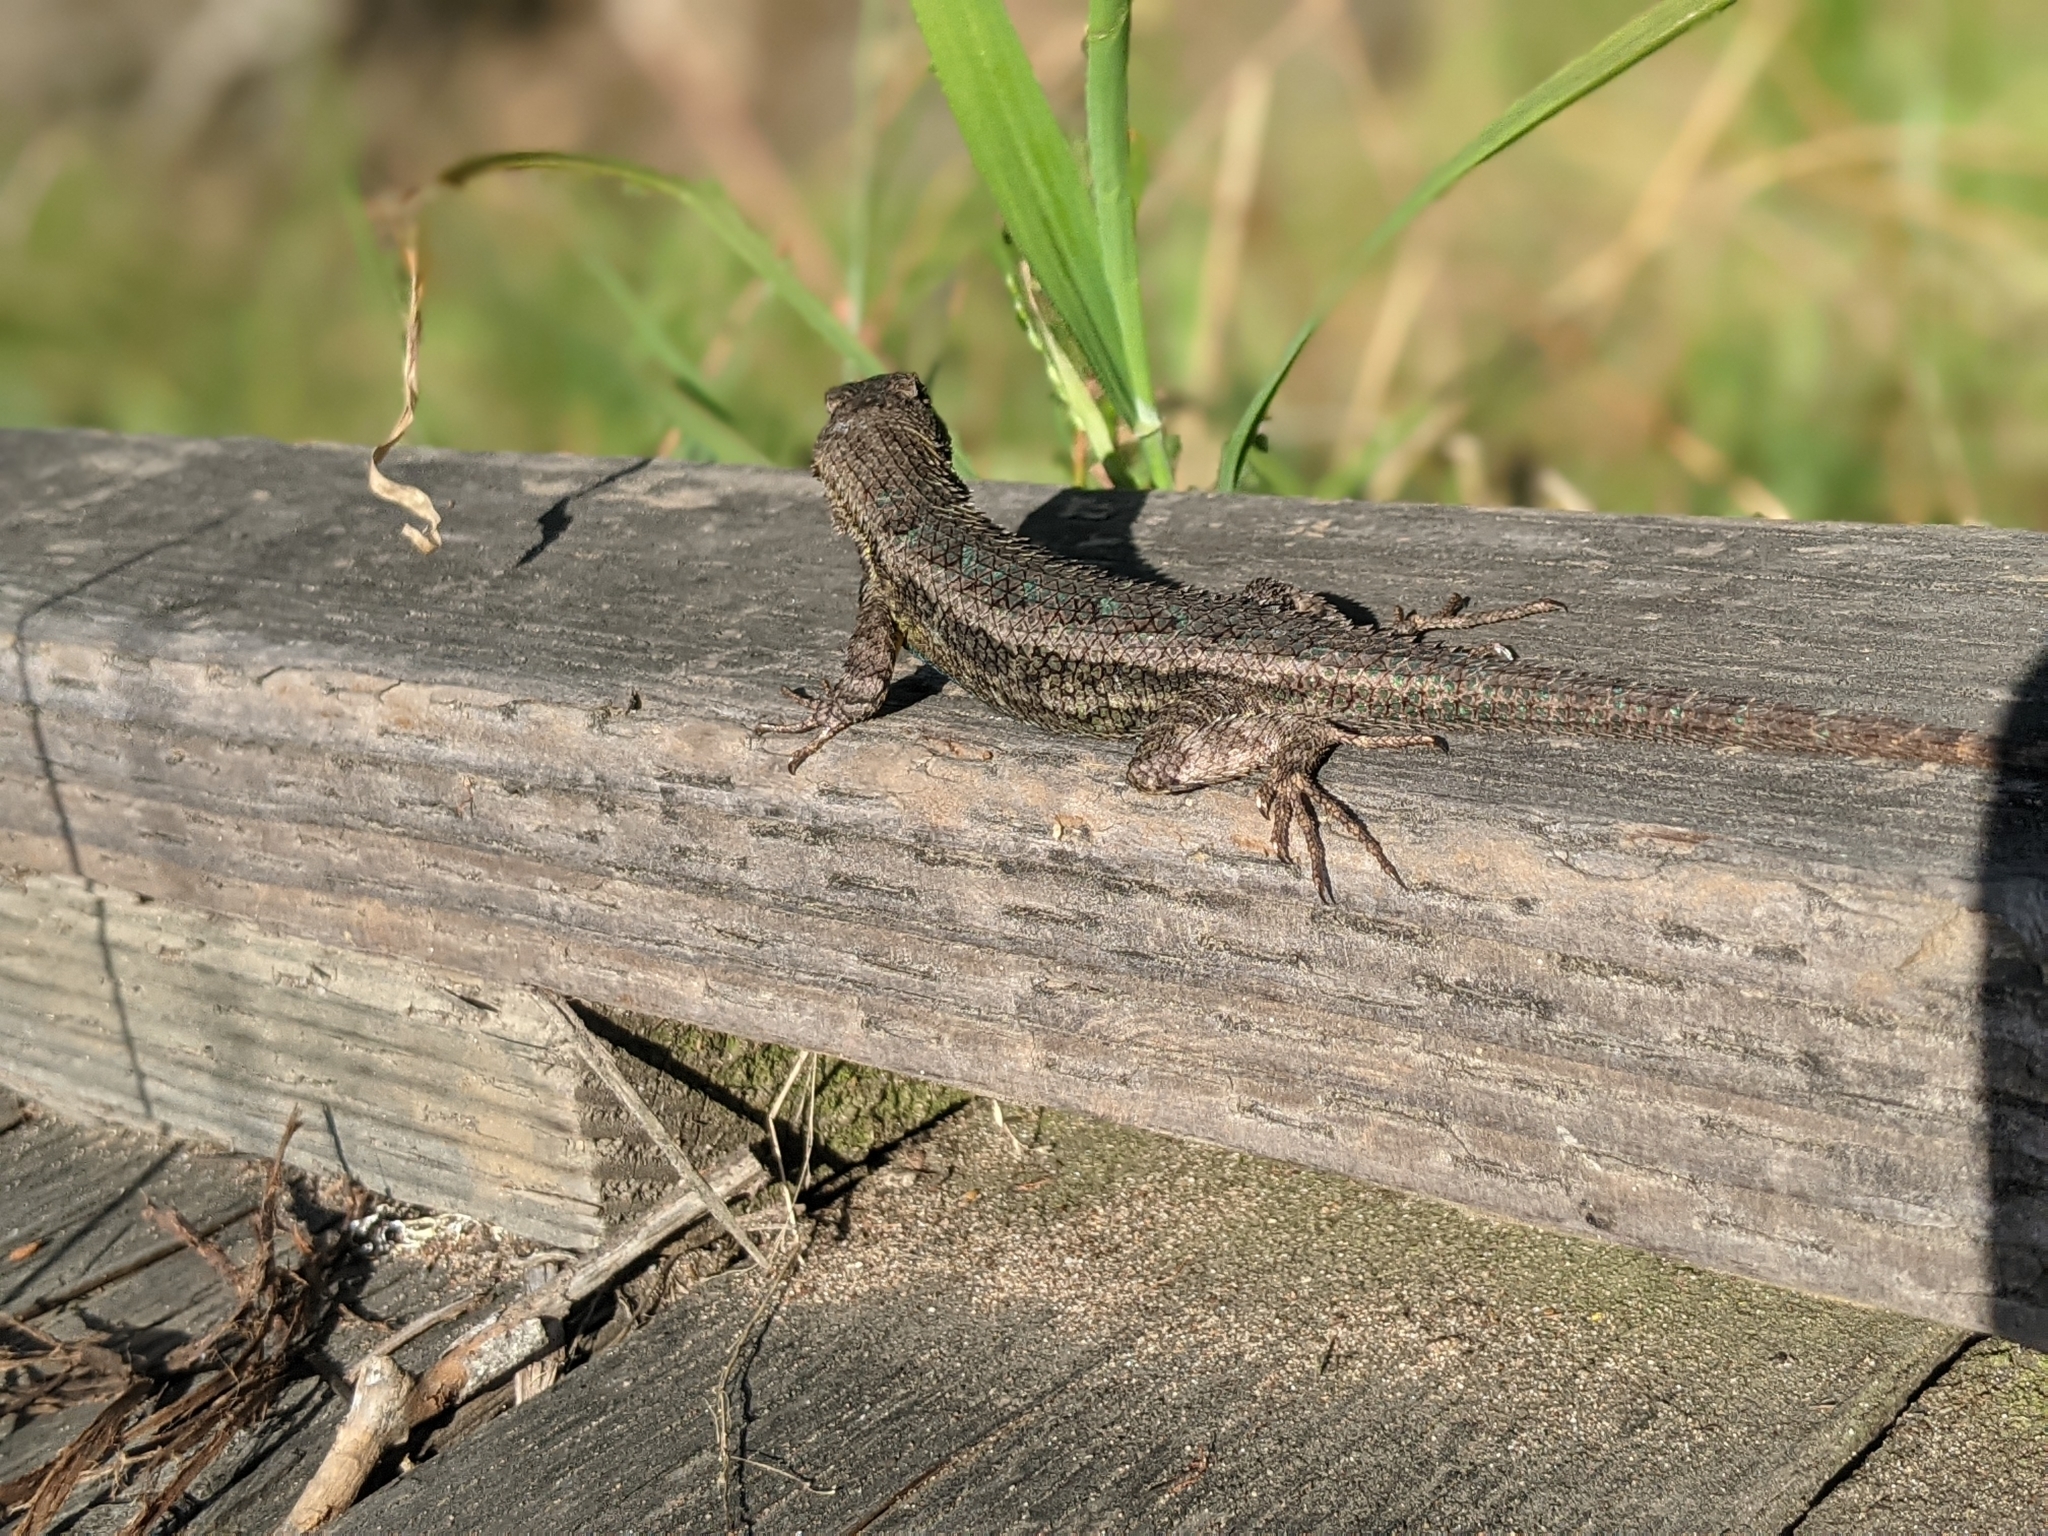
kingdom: Animalia
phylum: Chordata
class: Squamata
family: Phrynosomatidae
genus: Sceloporus
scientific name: Sceloporus occidentalis
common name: Western fence lizard
